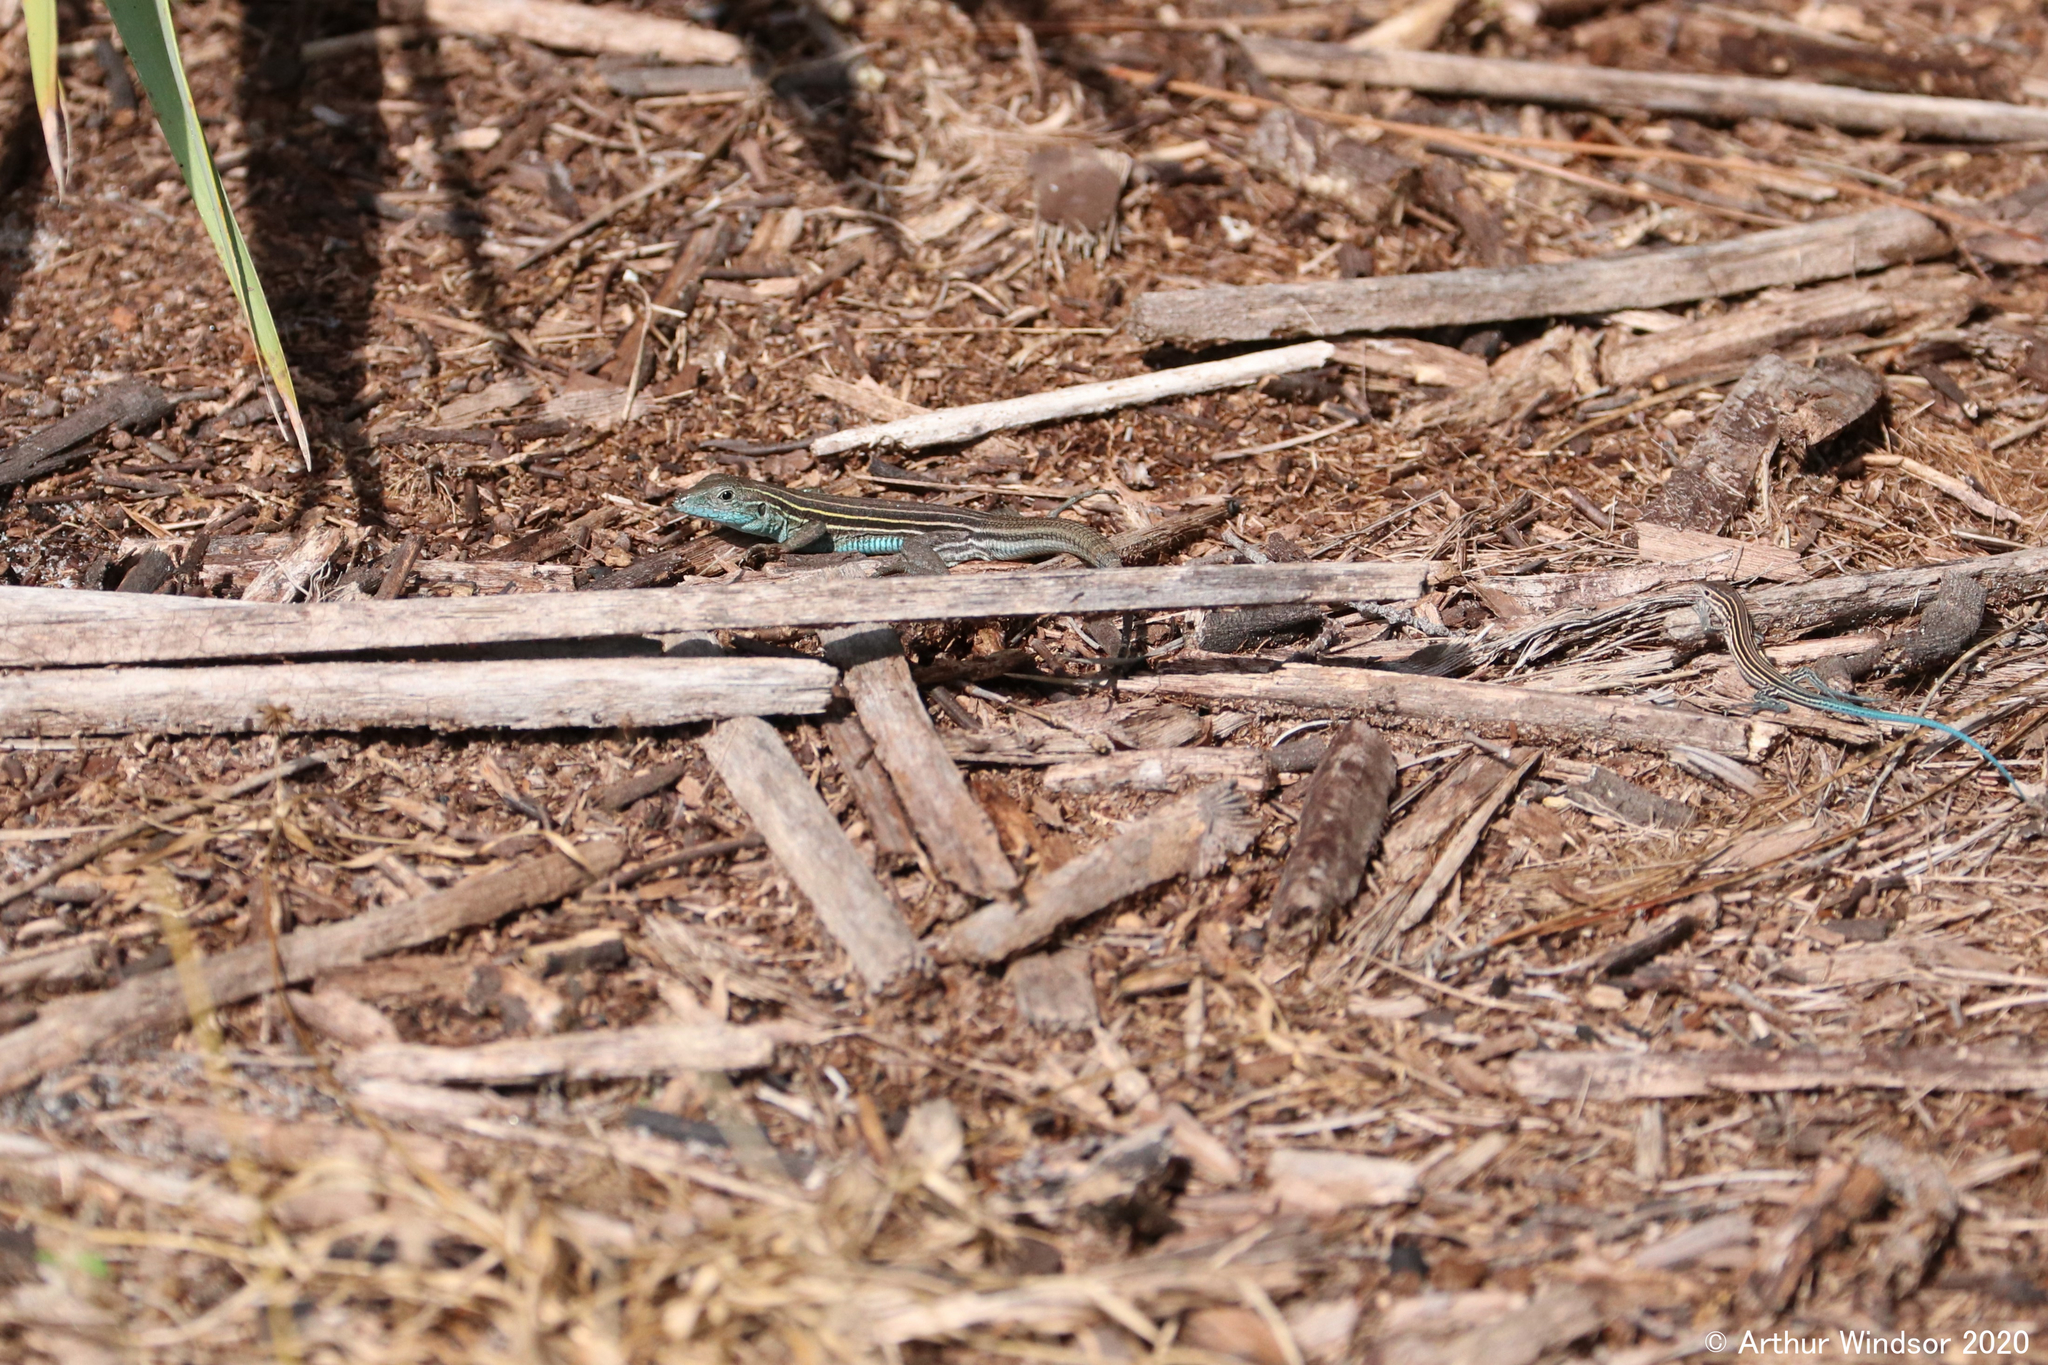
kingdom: Animalia
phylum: Chordata
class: Squamata
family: Teiidae
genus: Aspidoscelis
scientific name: Aspidoscelis sexlineatus
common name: Six-lined racerunner
